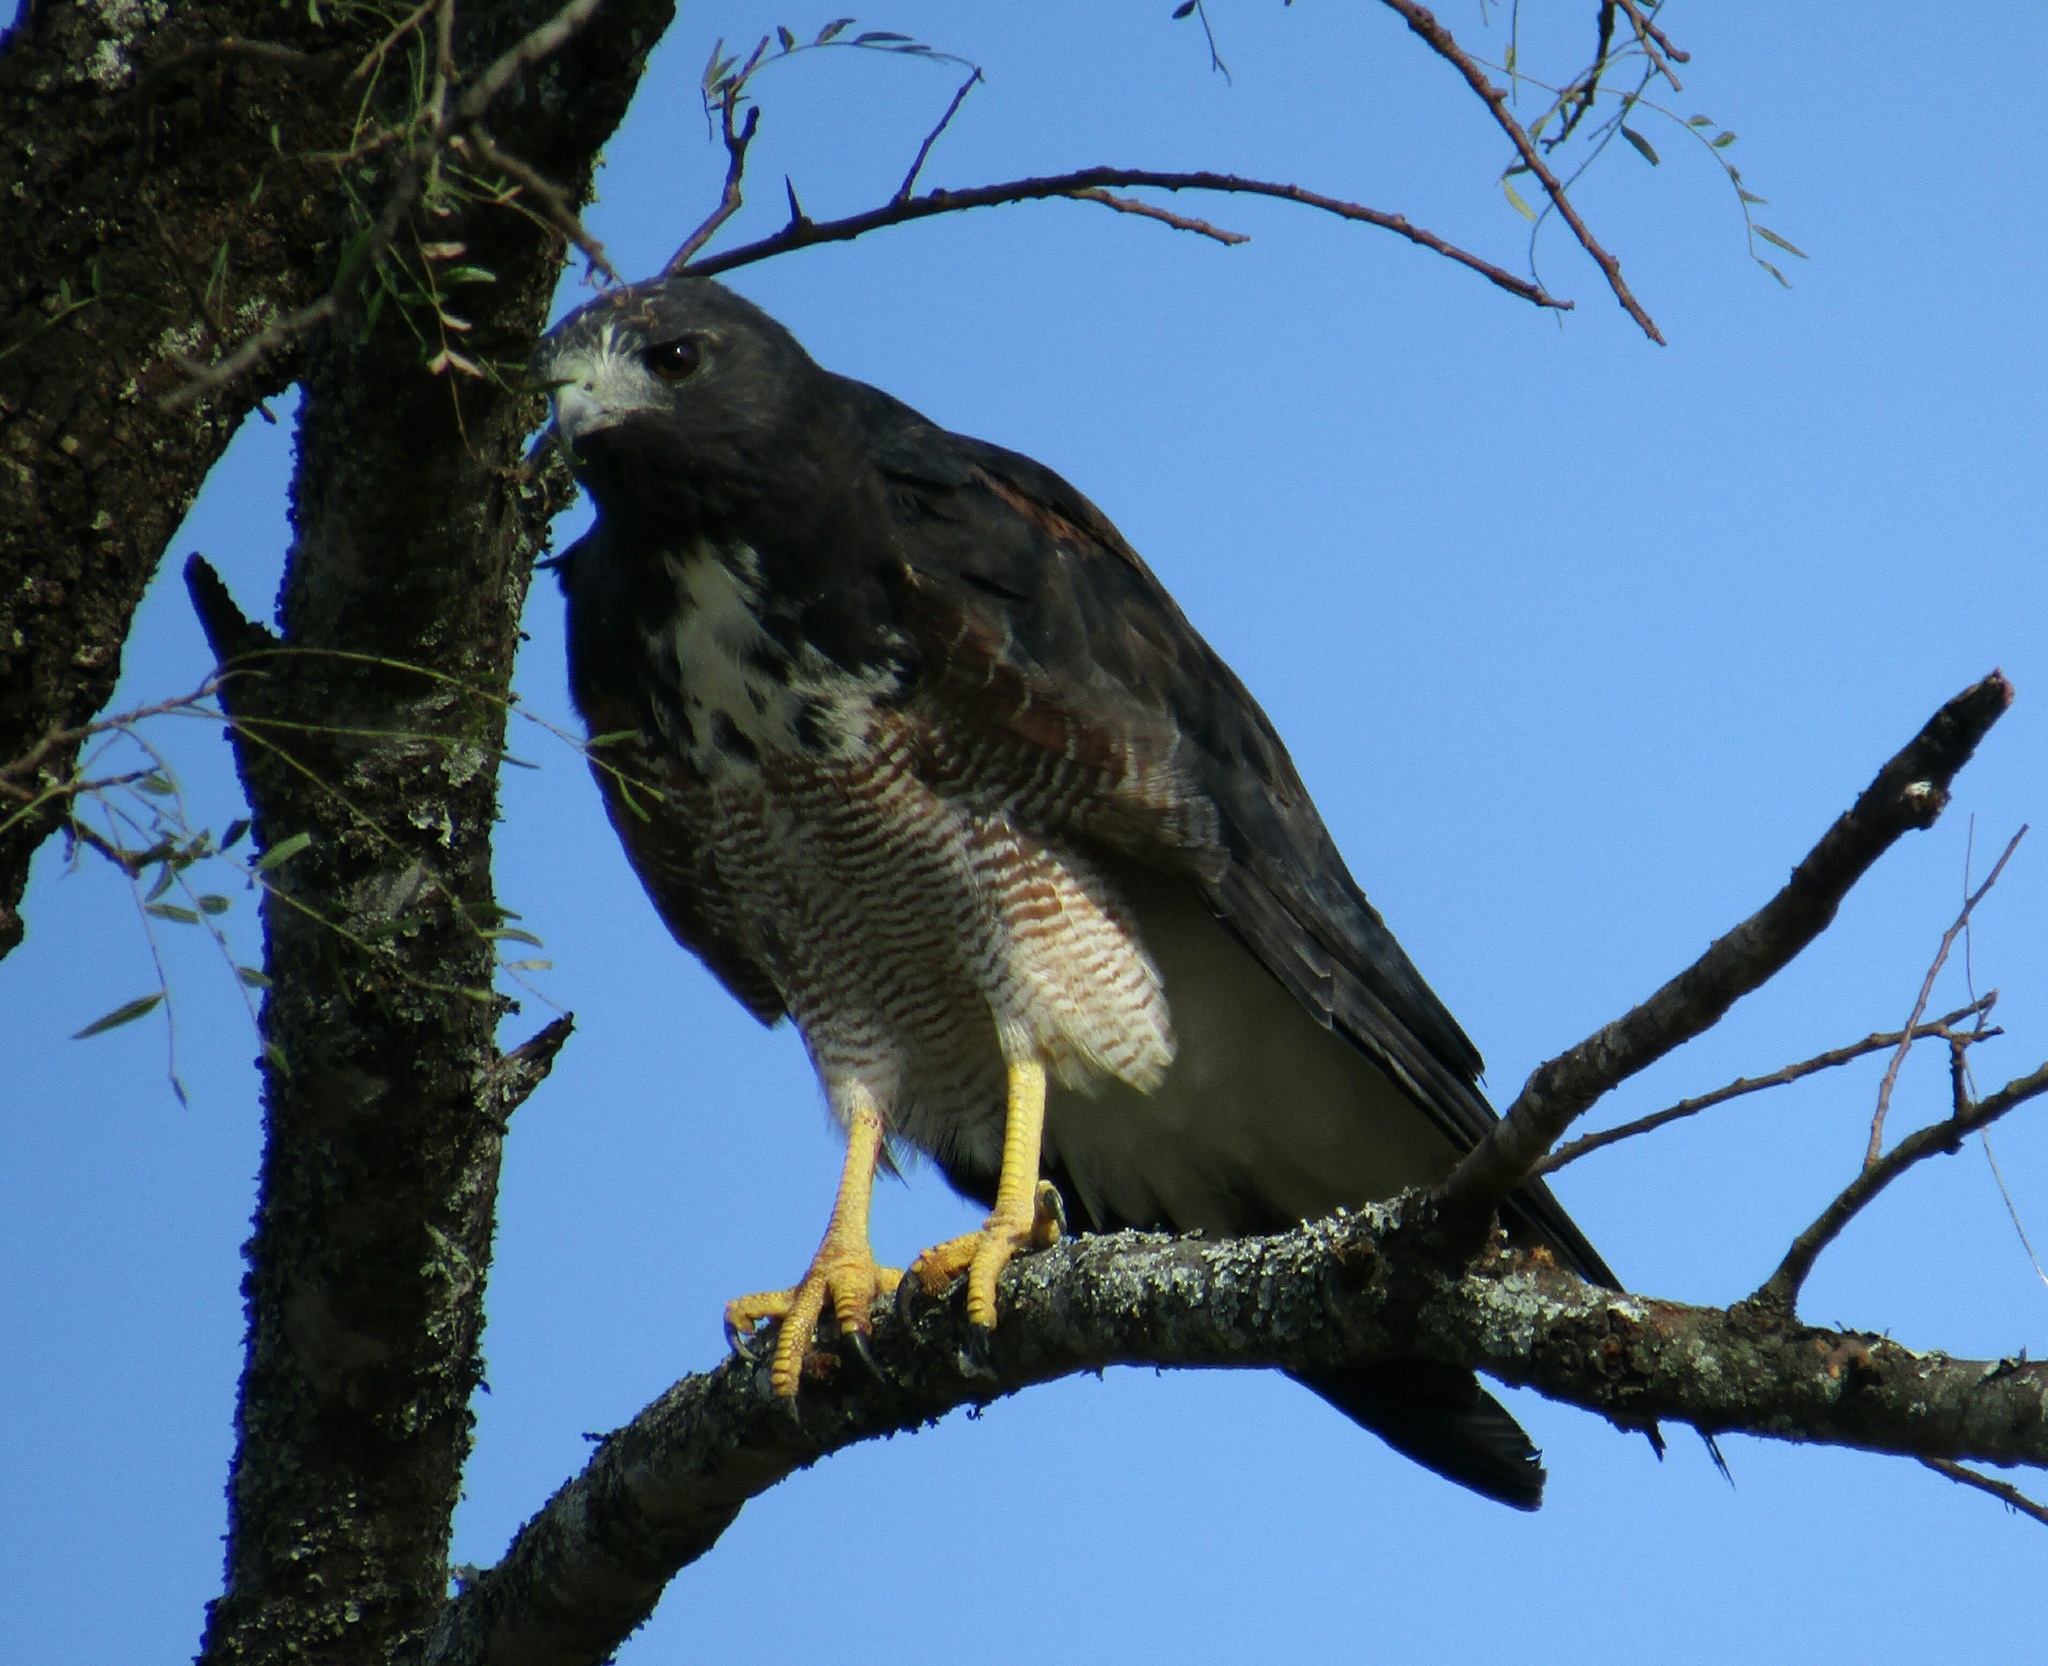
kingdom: Animalia
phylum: Chordata
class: Aves
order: Accipitriformes
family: Accipitridae
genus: Buteo
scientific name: Buteo albicaudatus
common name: White-tailed hawk
